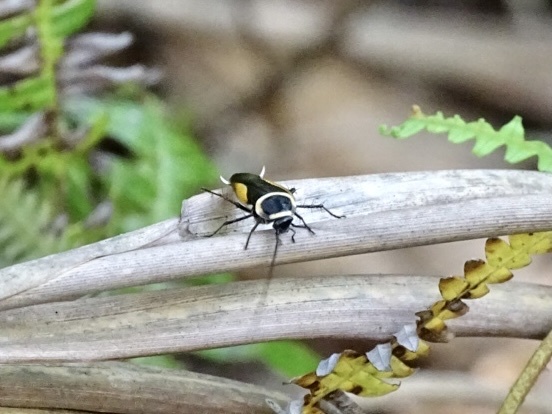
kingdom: Animalia
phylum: Arthropoda
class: Insecta
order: Blattodea
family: Ectobiidae
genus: Hemithyrsocera
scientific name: Hemithyrsocera vittata
